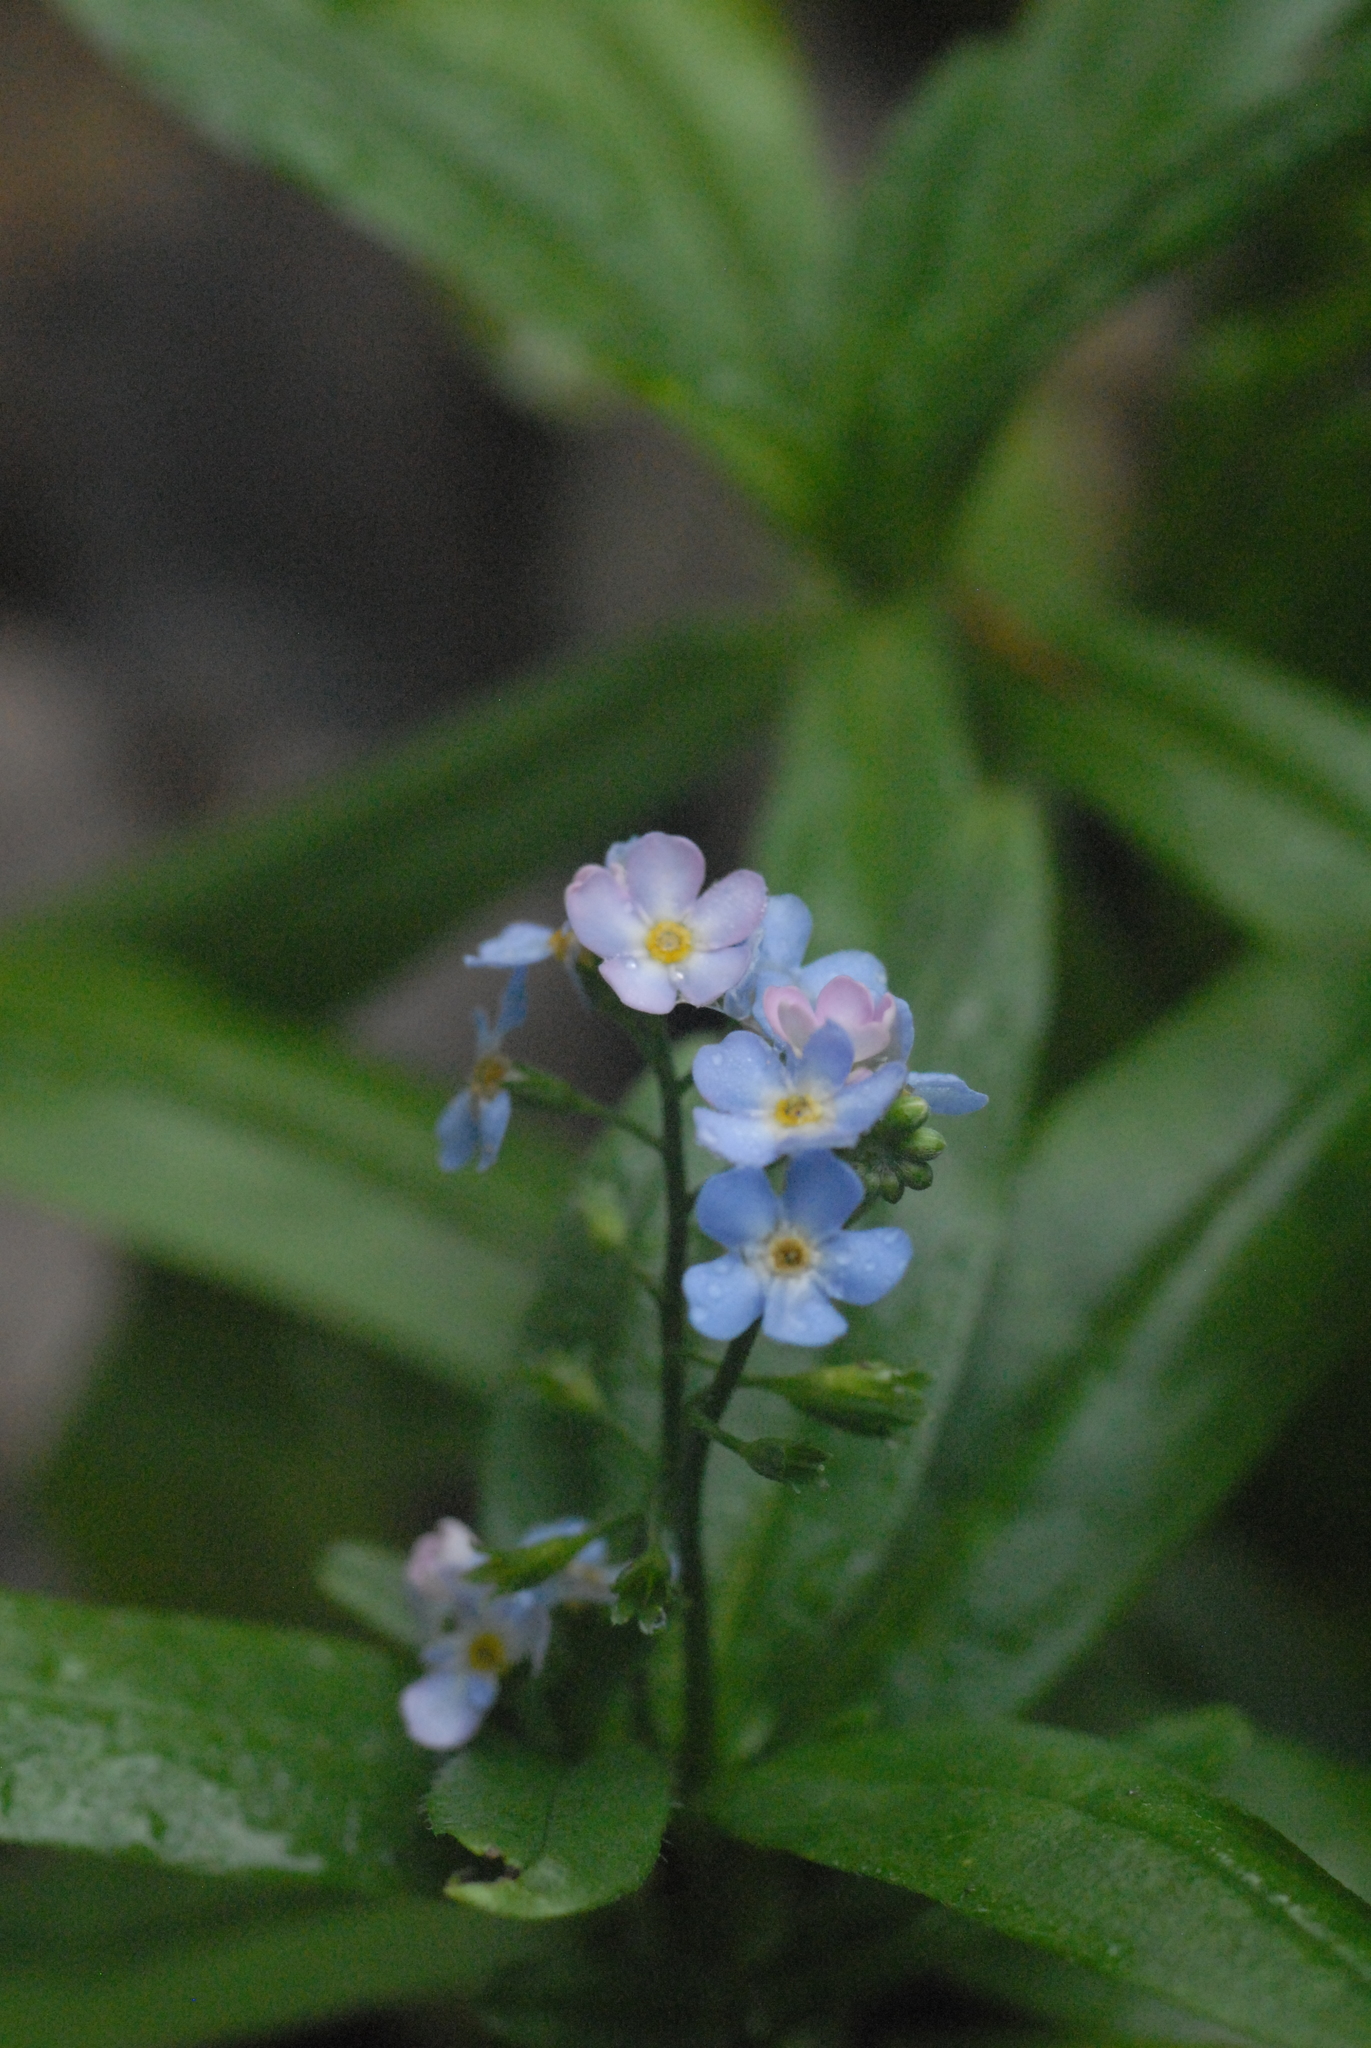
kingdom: Plantae
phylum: Tracheophyta
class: Magnoliopsida
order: Boraginales
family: Boraginaceae
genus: Myosotis
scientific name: Myosotis scorpioides
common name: Water forget-me-not
